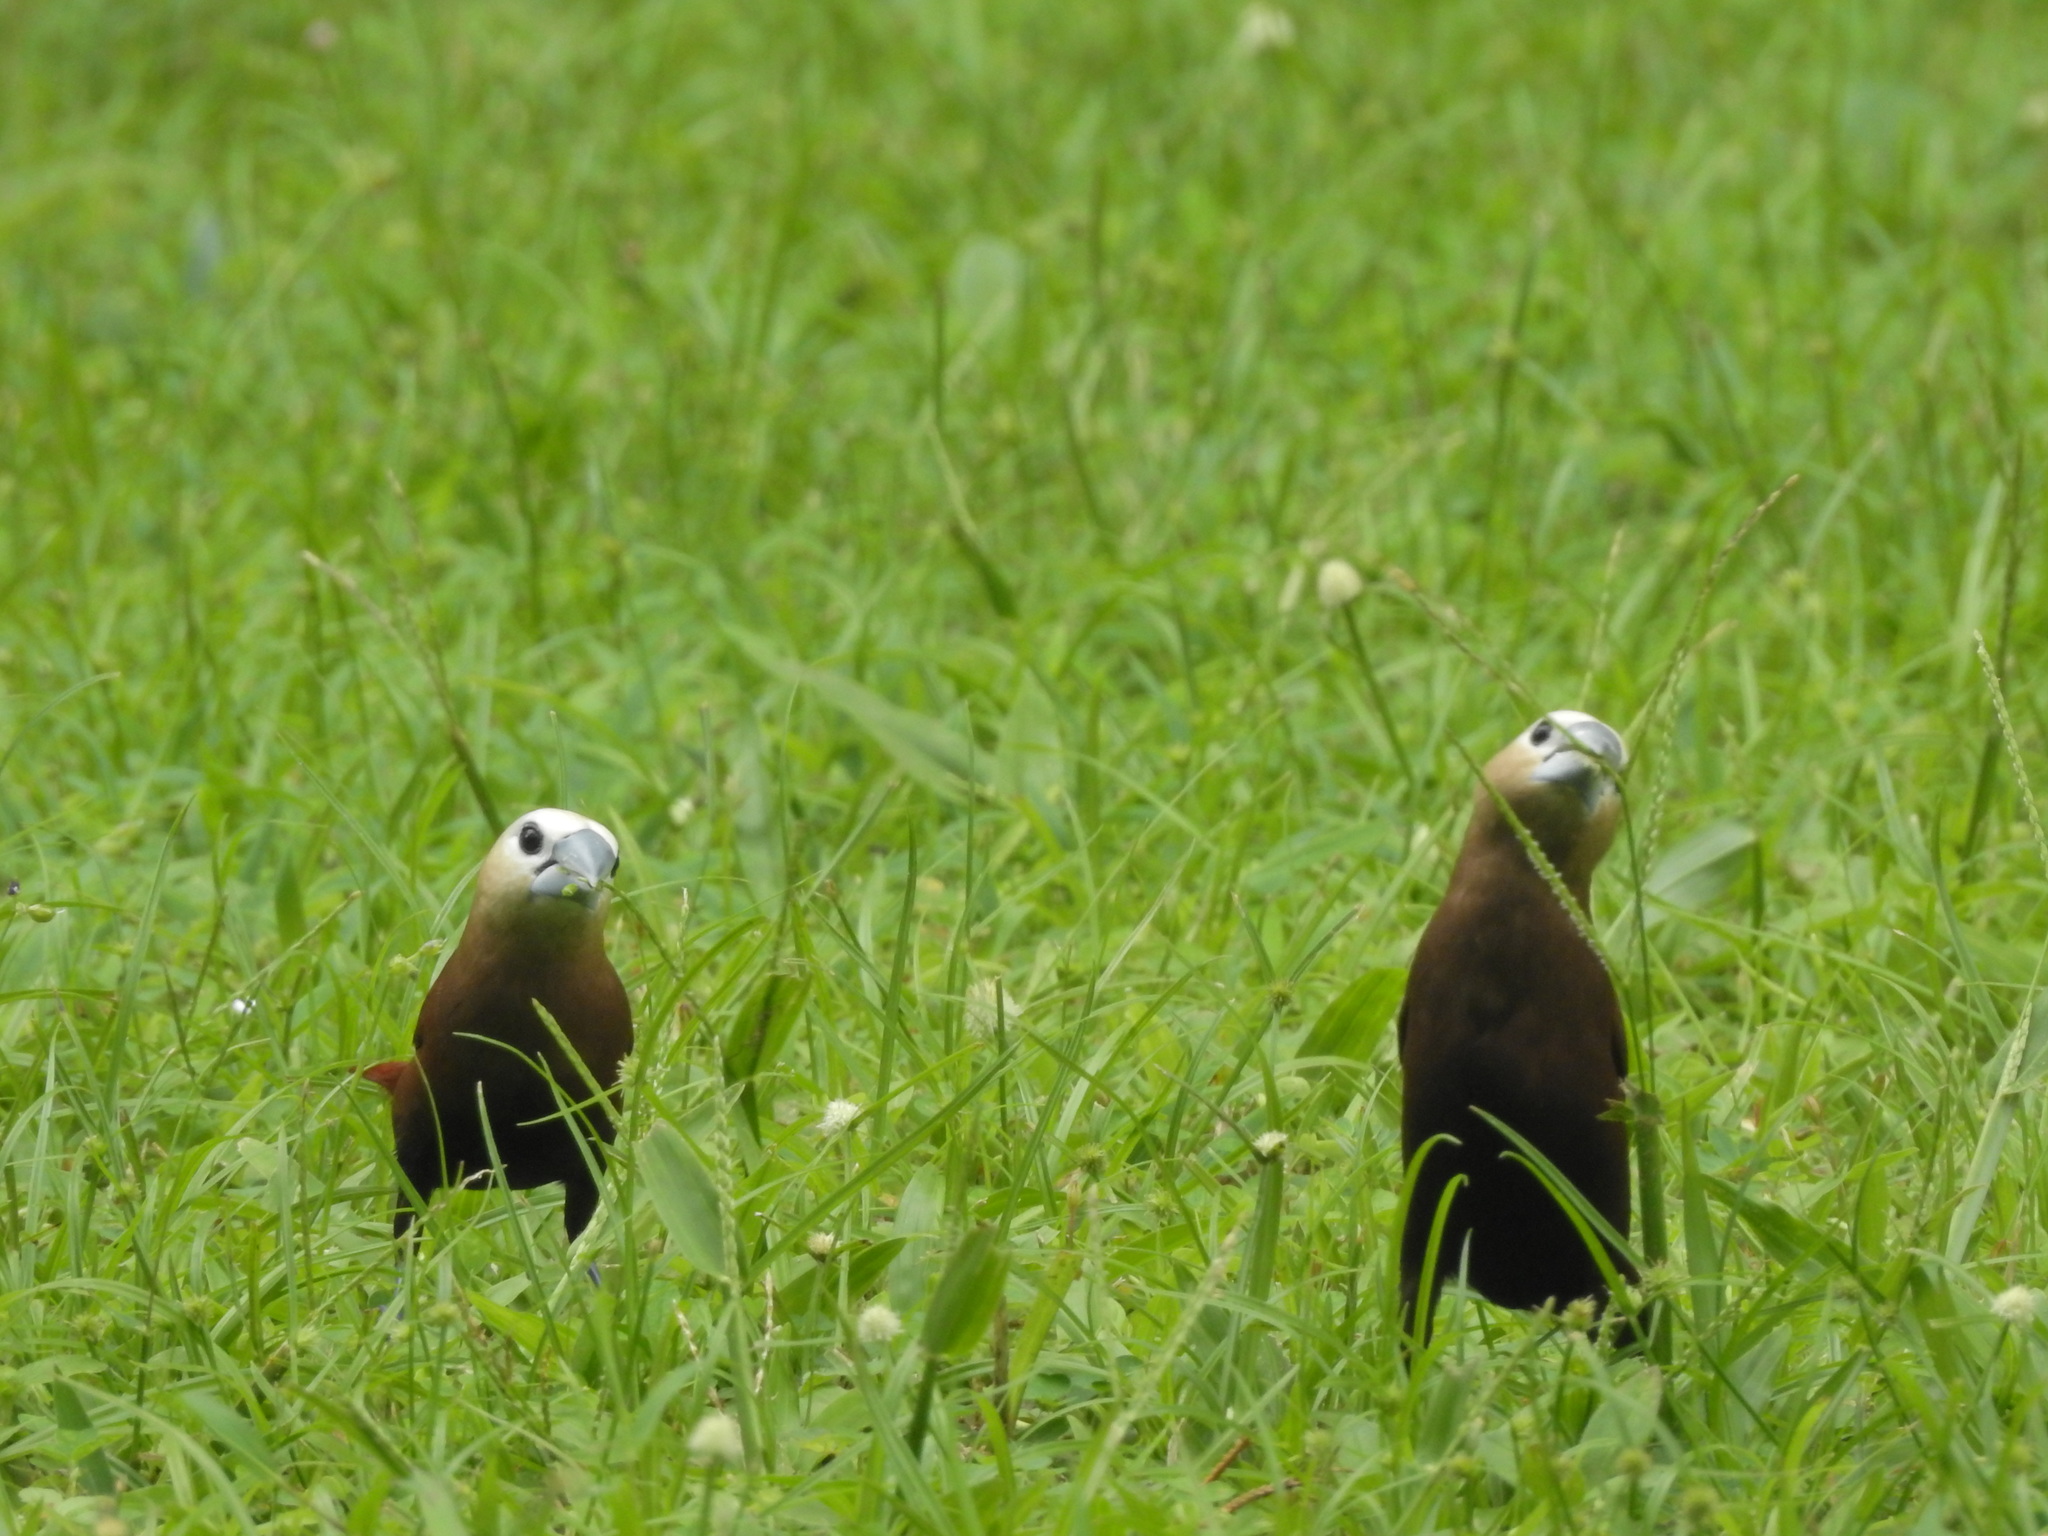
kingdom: Animalia
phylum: Chordata
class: Aves
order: Passeriformes
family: Estrildidae
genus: Lonchura
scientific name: Lonchura maja
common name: White-headed munia
